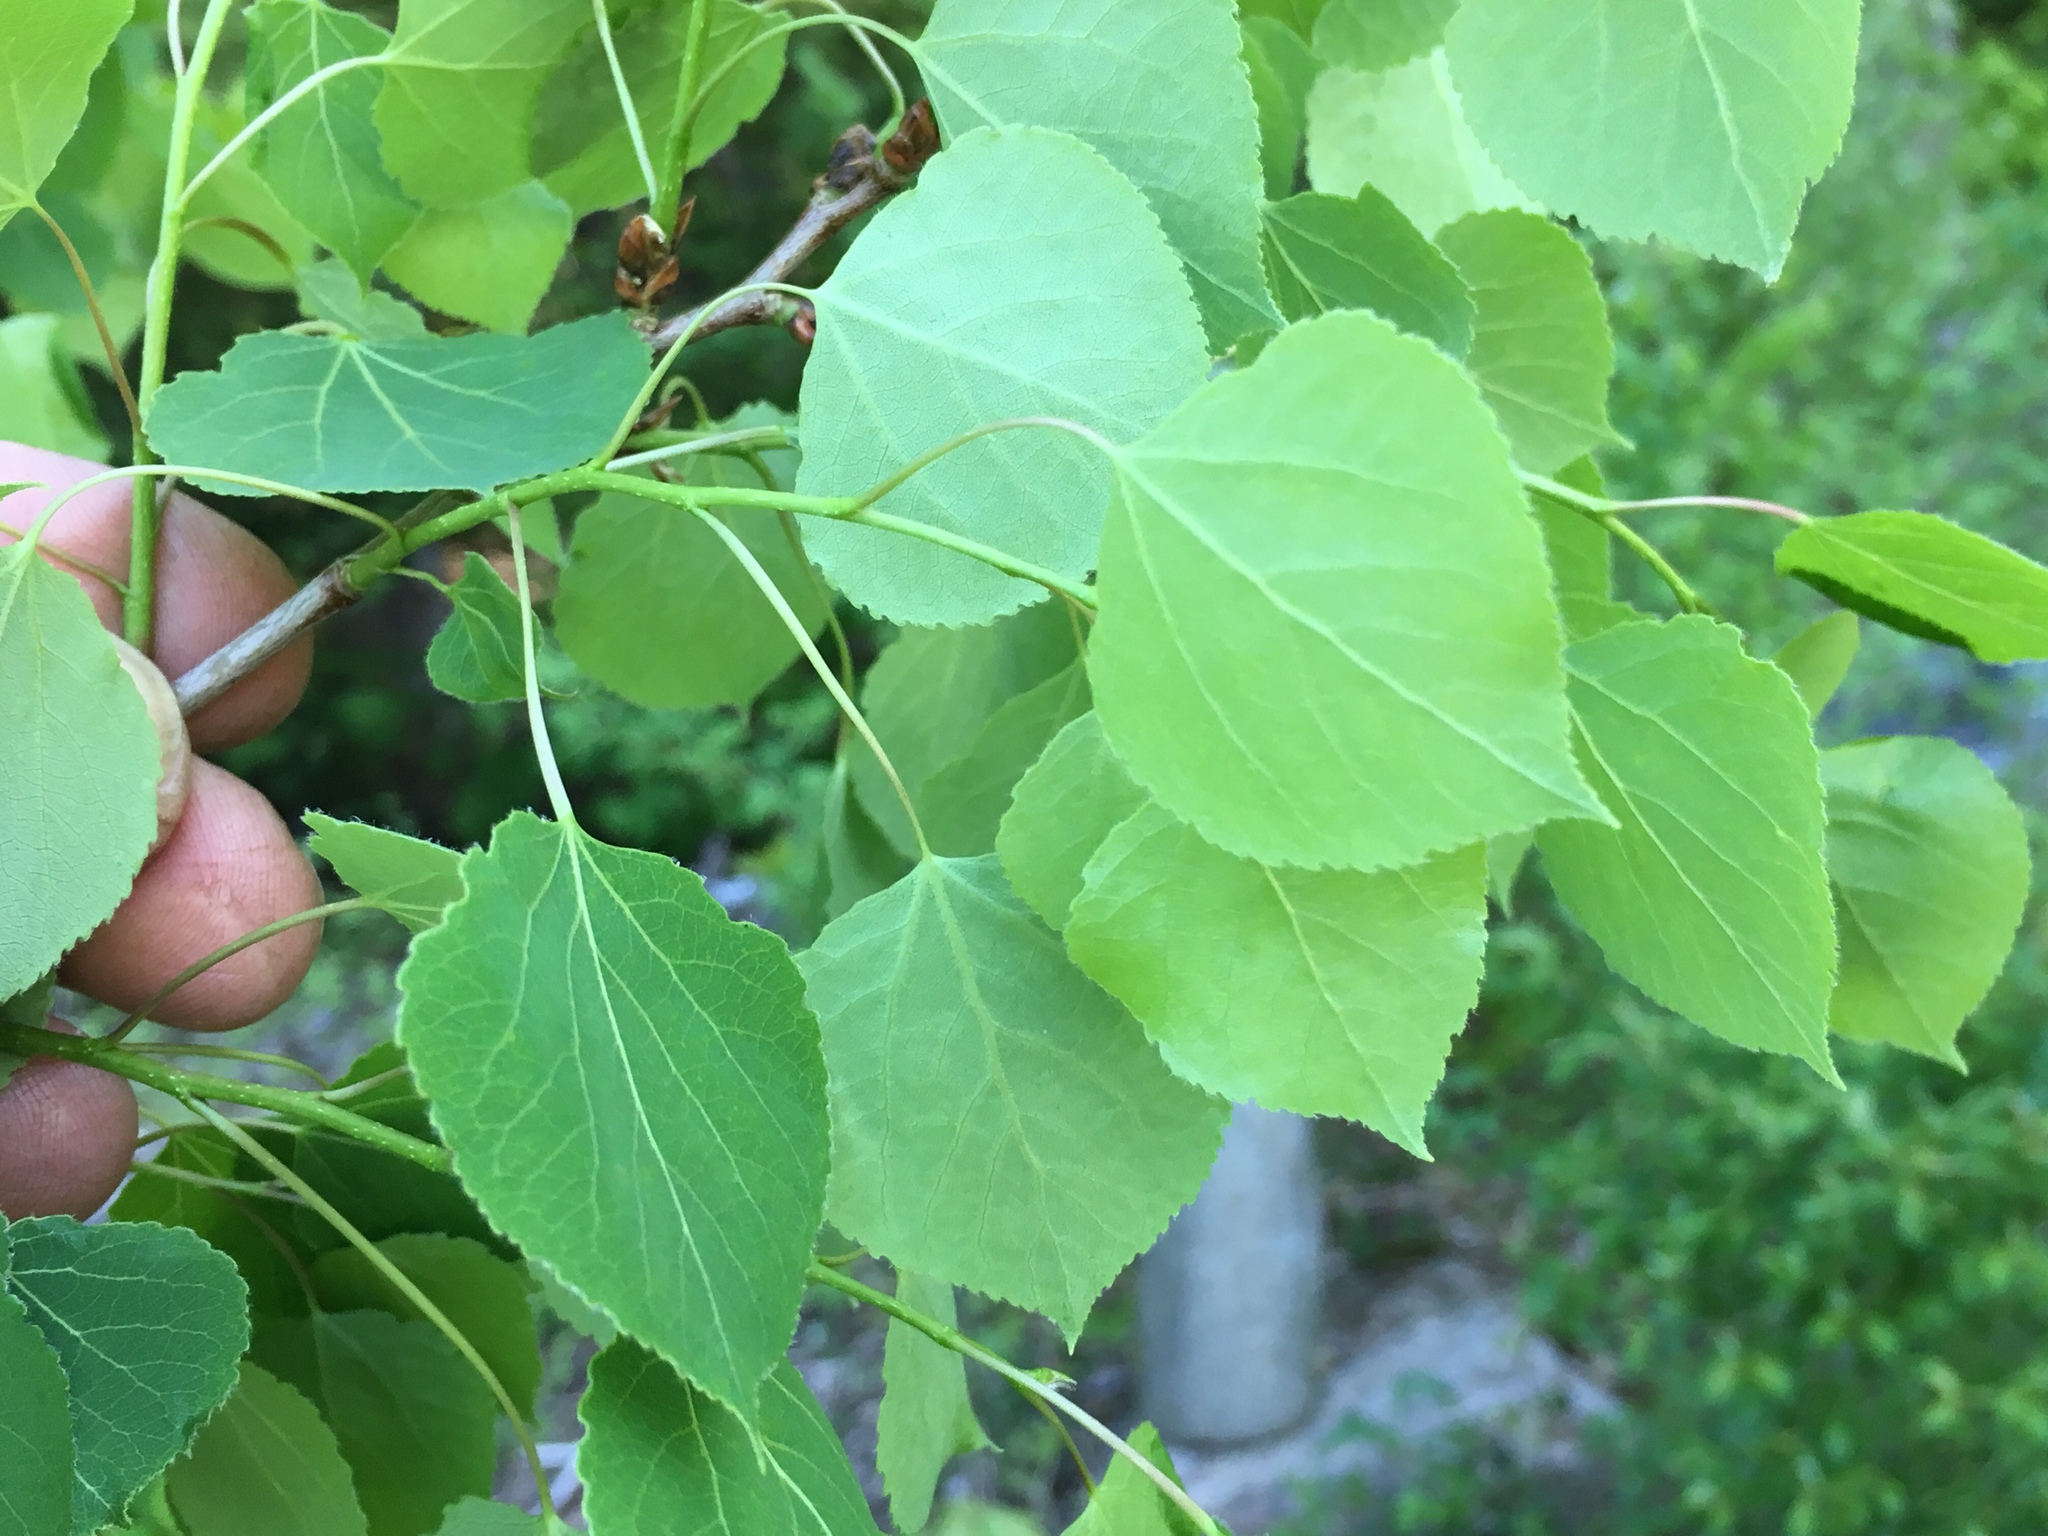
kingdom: Plantae
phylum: Tracheophyta
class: Magnoliopsida
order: Malpighiales
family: Salicaceae
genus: Populus
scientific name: Populus tremuloides
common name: Quaking aspen
